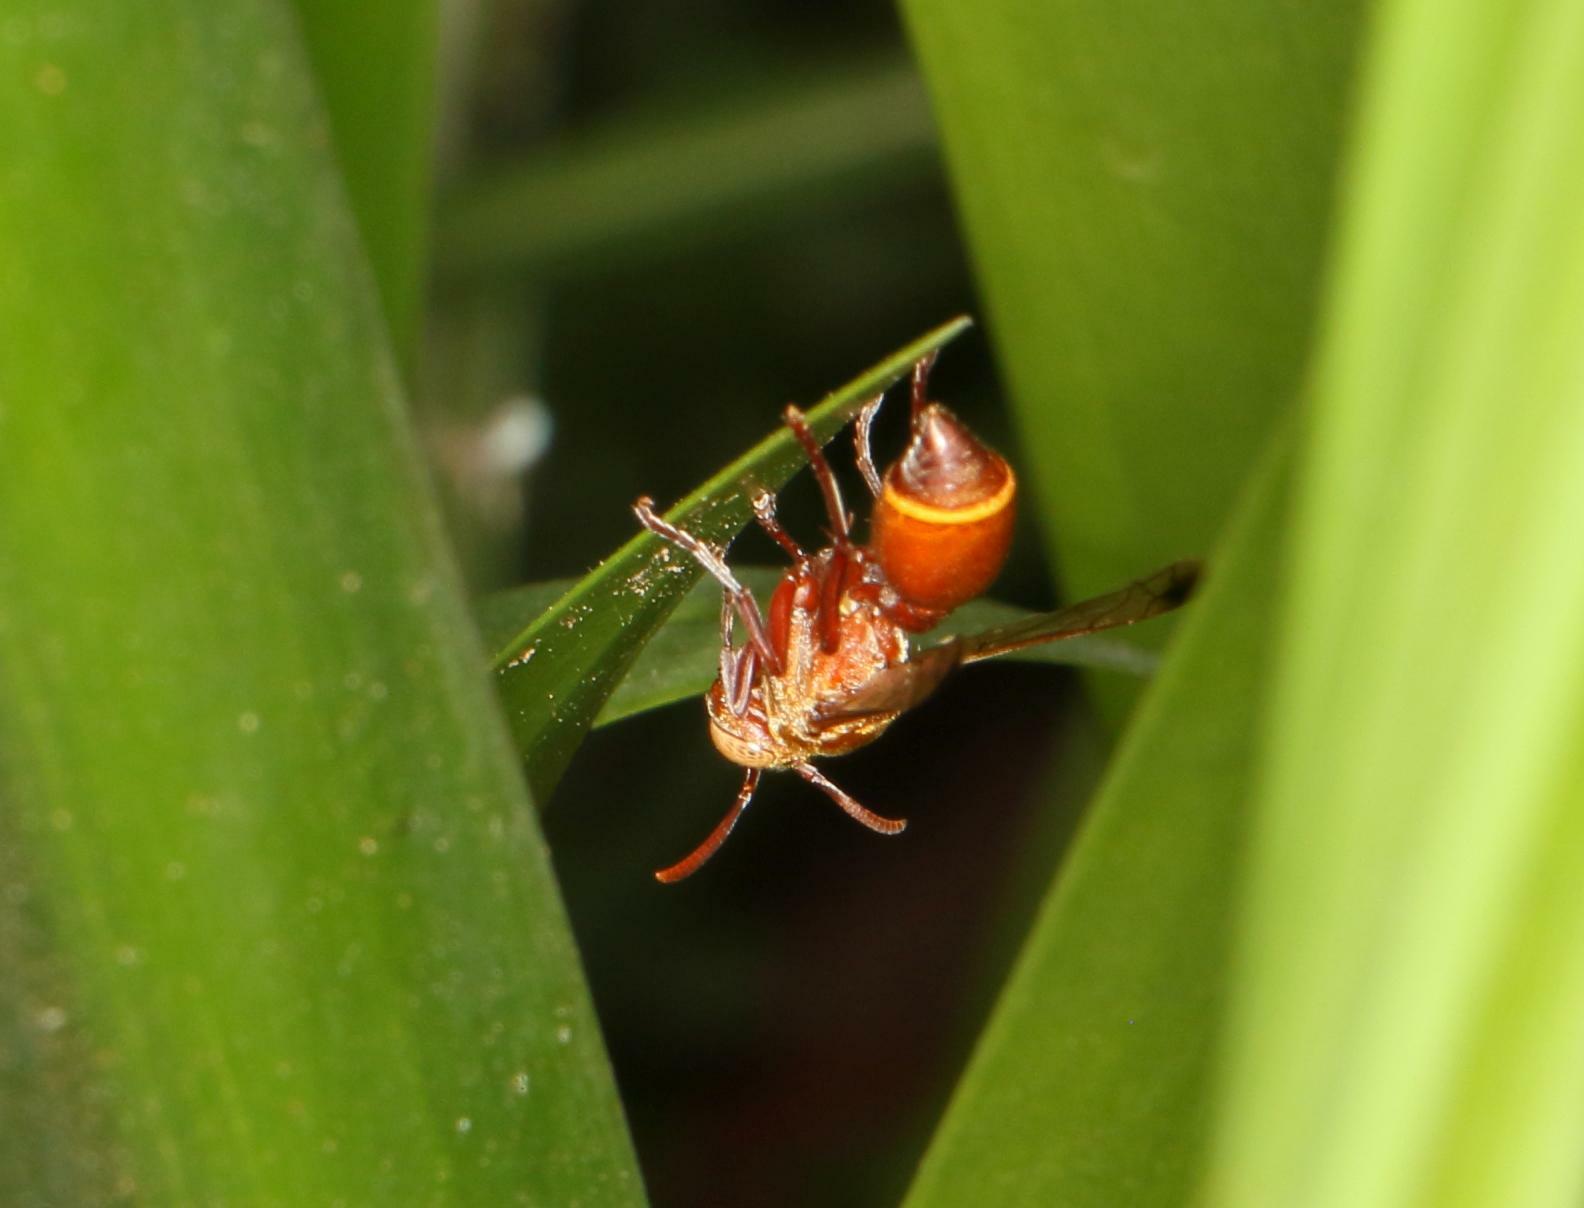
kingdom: Animalia
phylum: Arthropoda
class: Insecta
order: Hymenoptera
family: Vespidae
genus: Ropalidia
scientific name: Ropalidia distigma
